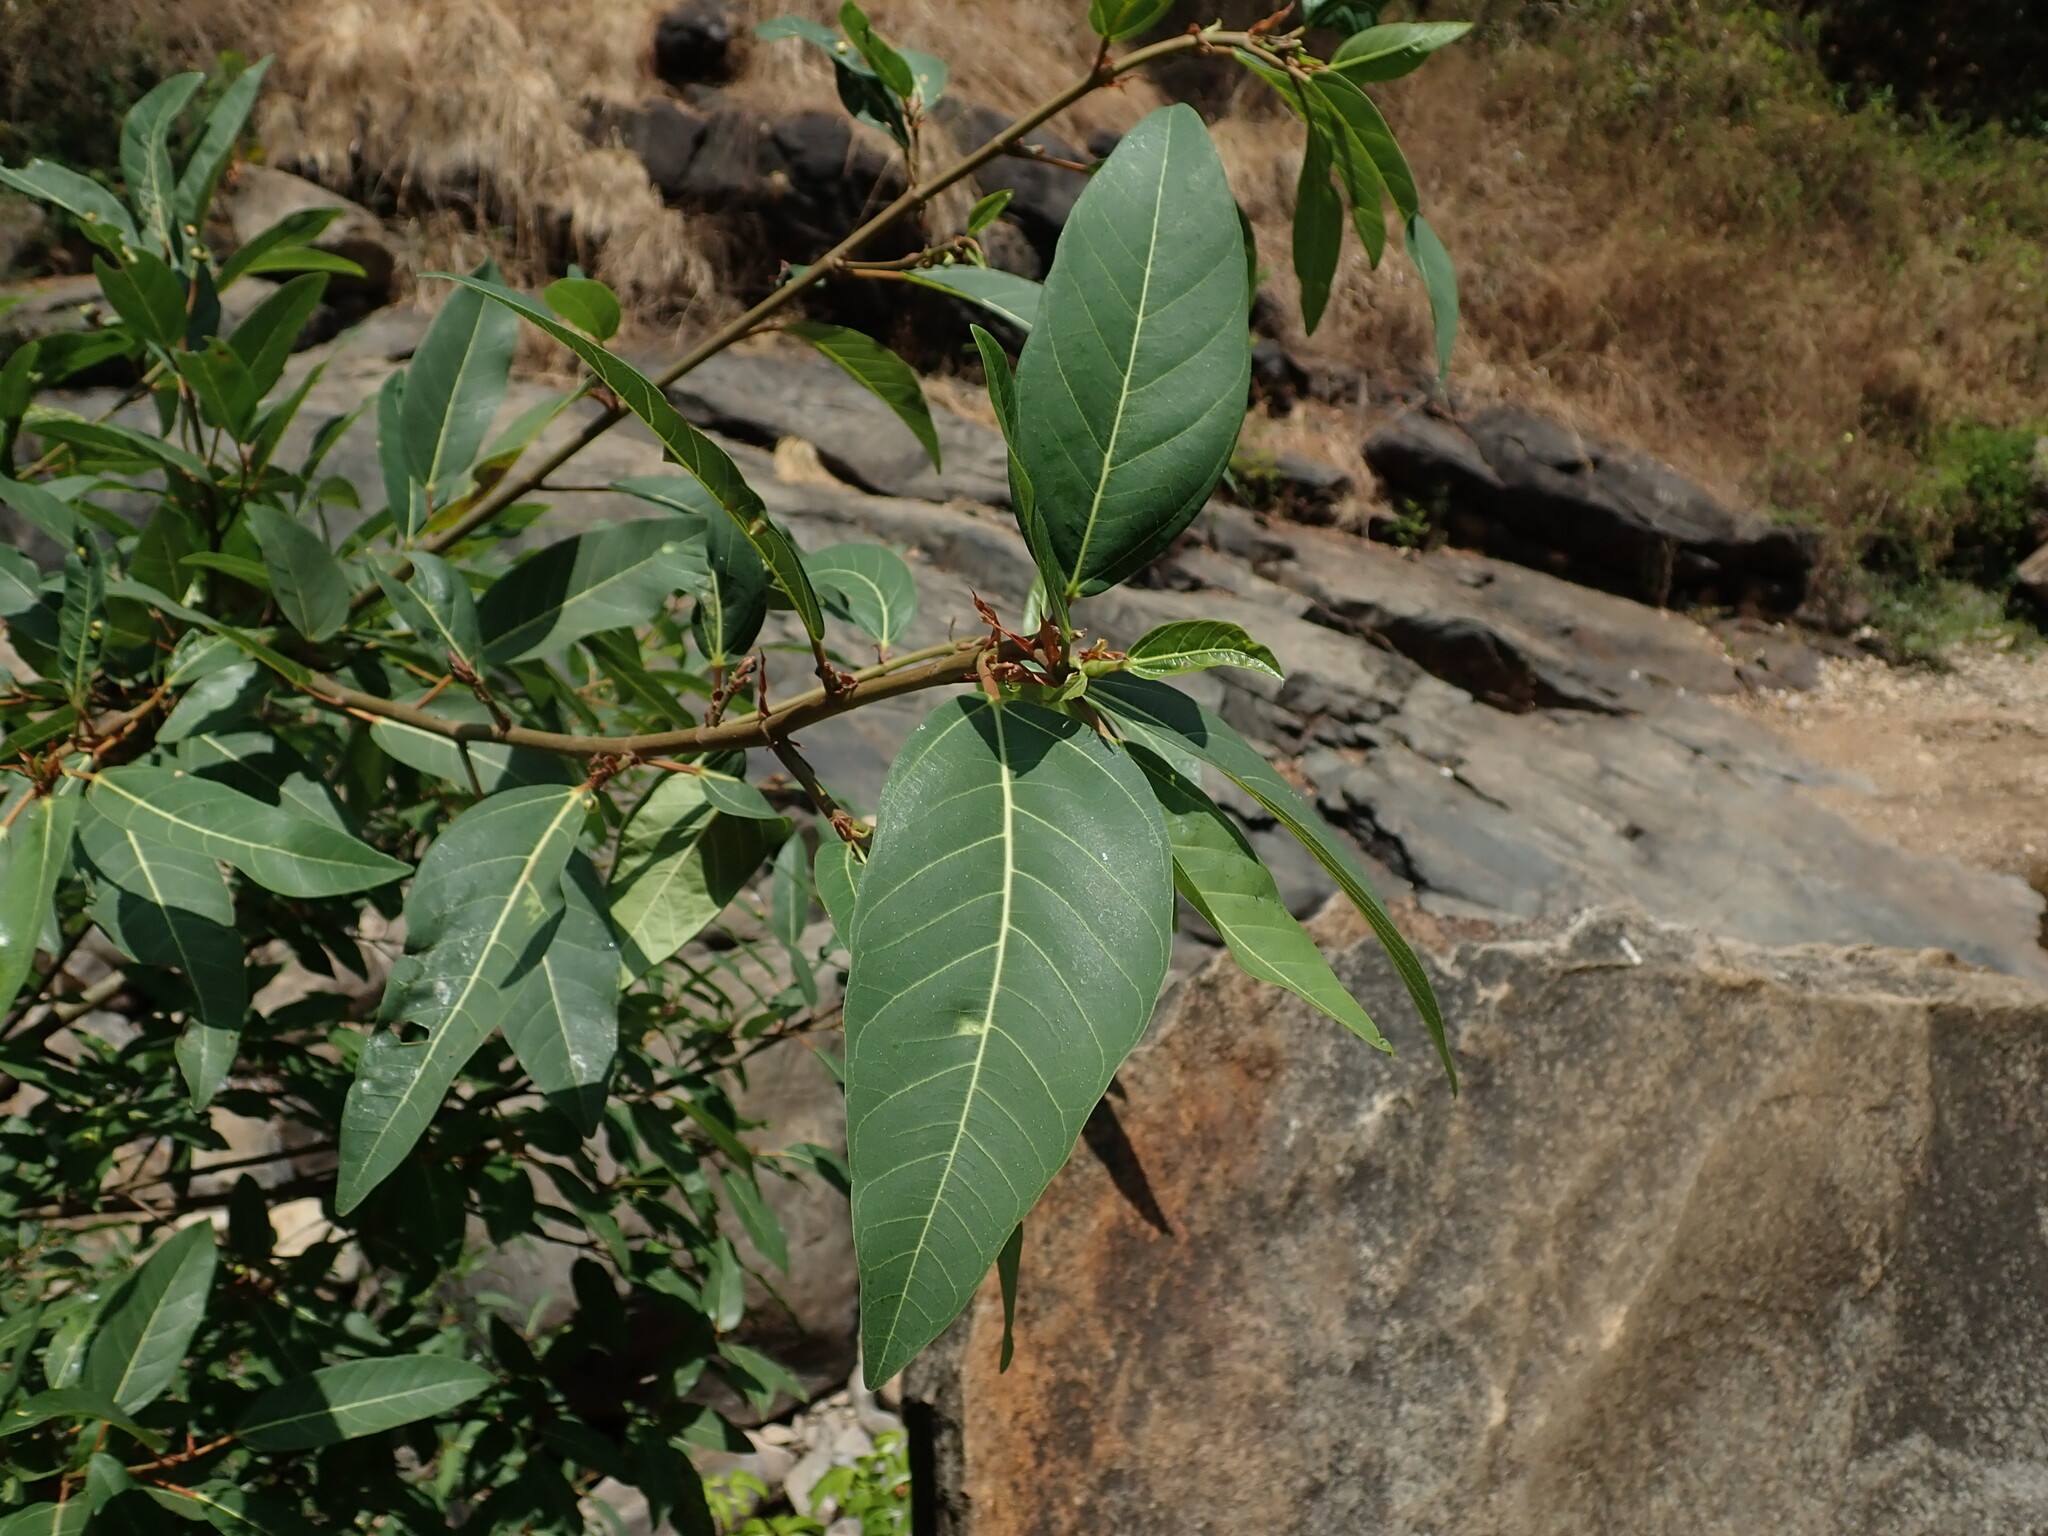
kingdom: Plantae
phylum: Tracheophyta
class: Magnoliopsida
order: Rosales
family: Moraceae
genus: Ficus
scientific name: Ficus racemosa
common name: Cluster fig
